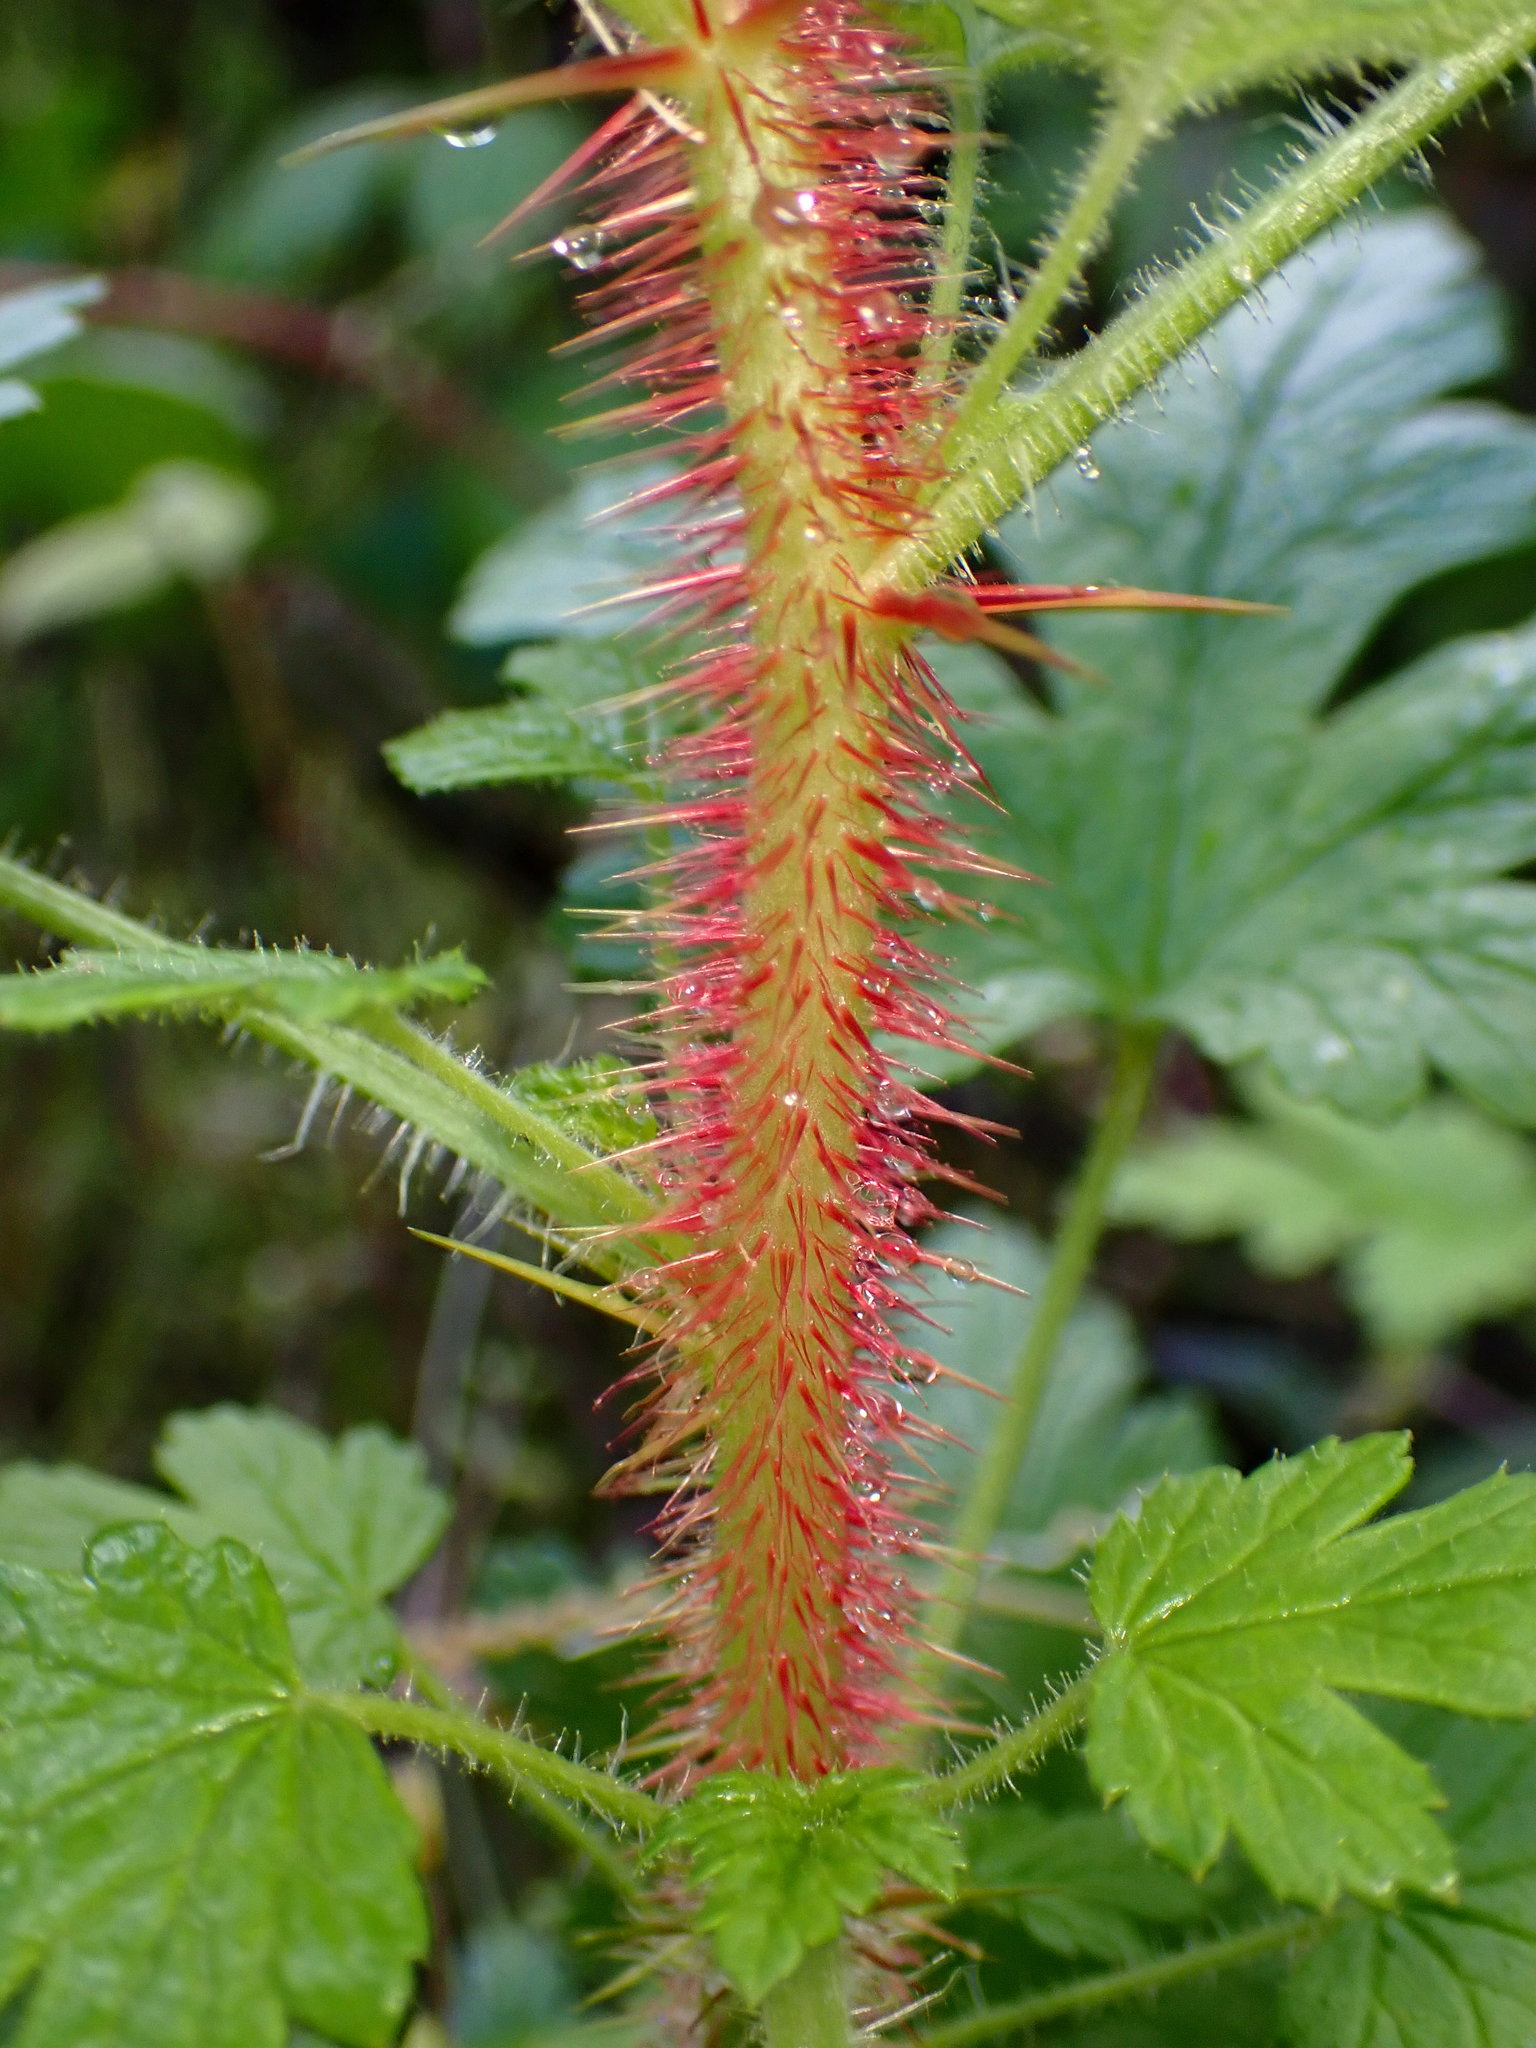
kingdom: Plantae
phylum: Tracheophyta
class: Magnoliopsida
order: Saxifragales
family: Grossulariaceae
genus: Ribes
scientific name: Ribes menziesii
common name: Canyon gooseberry
